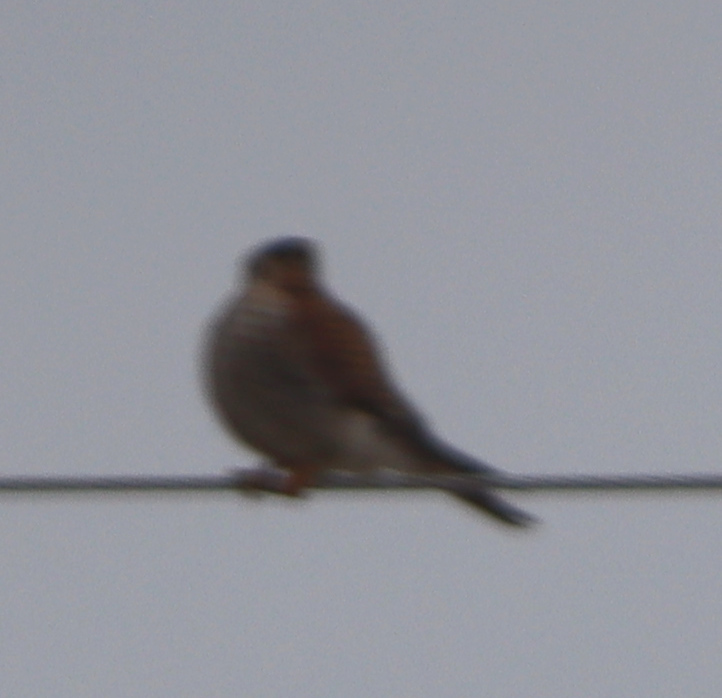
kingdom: Animalia
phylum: Chordata
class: Aves
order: Falconiformes
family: Falconidae
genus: Falco
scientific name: Falco sparverius
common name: American kestrel
